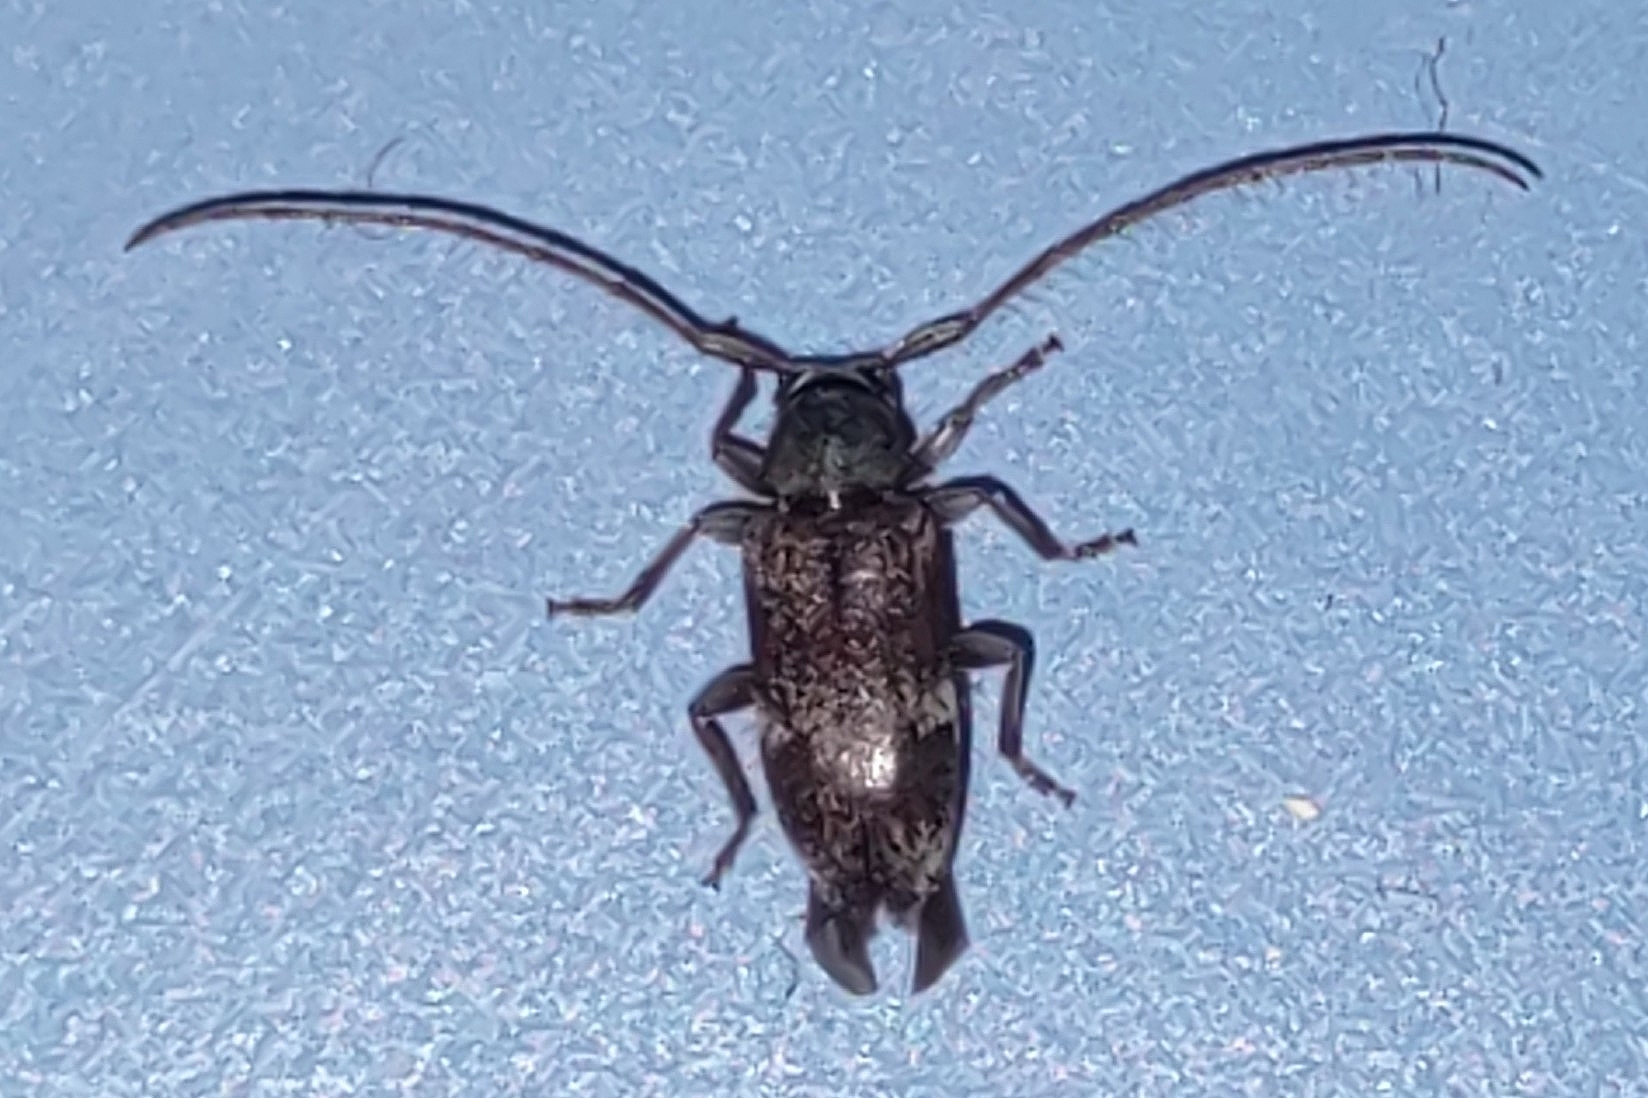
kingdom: Animalia
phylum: Arthropoda
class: Insecta
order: Coleoptera
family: Cerambycidae
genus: Exocentrus
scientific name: Exocentrus lusitanus
